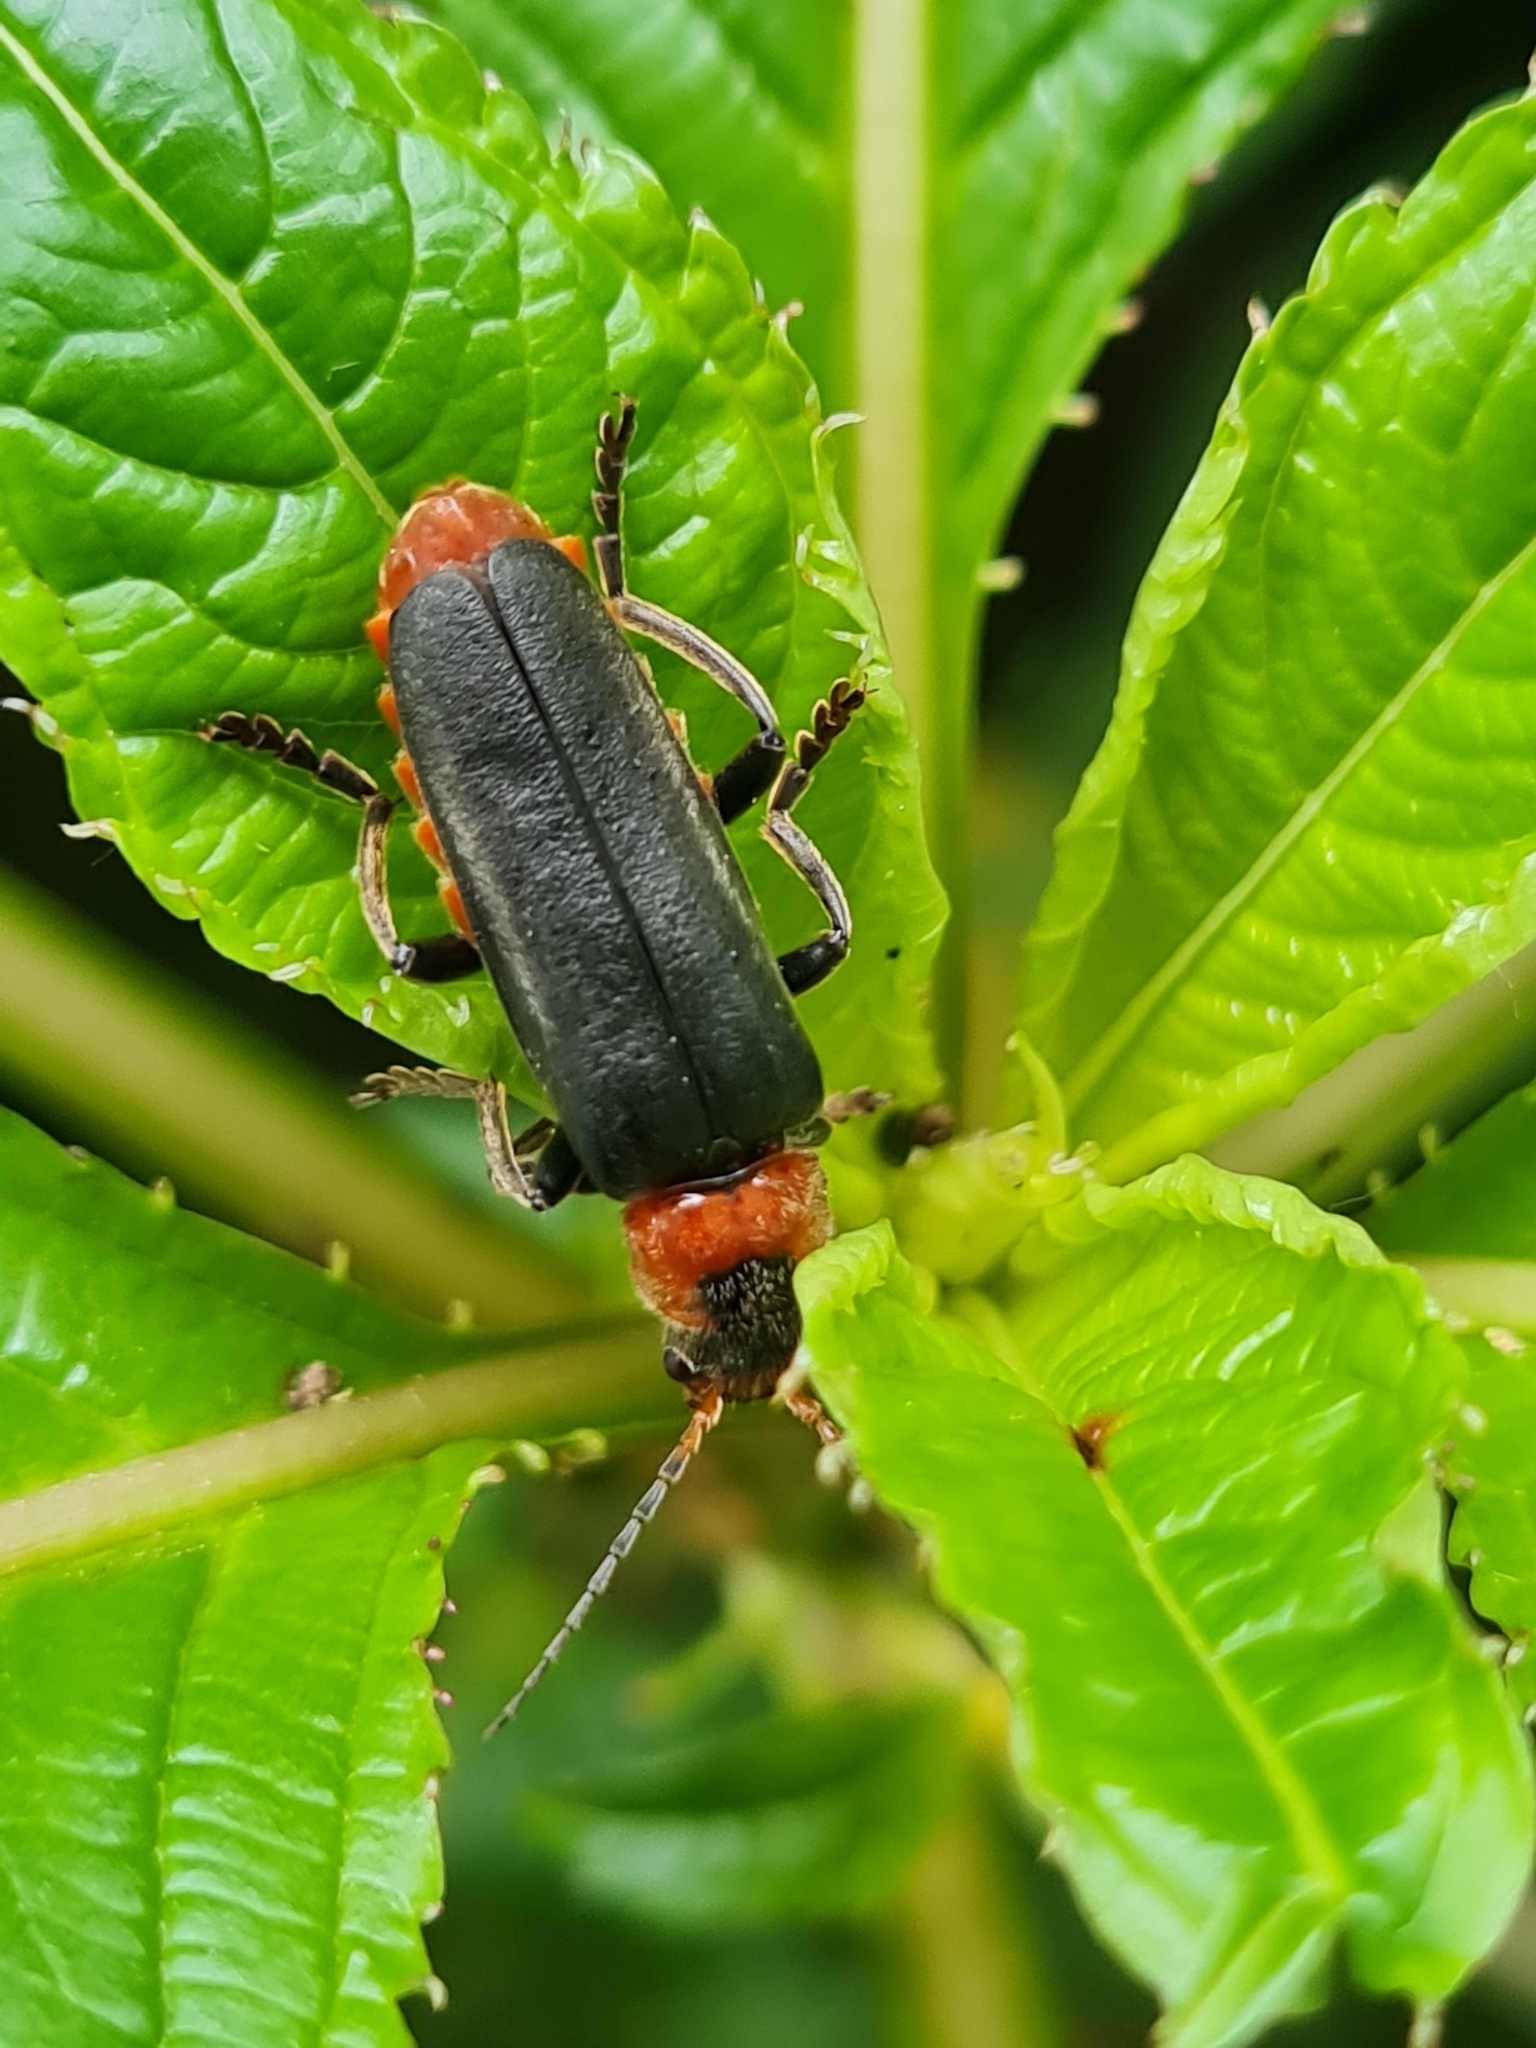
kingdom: Animalia
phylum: Arthropoda
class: Insecta
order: Coleoptera
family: Cantharidae
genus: Cantharis
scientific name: Cantharis fusca
